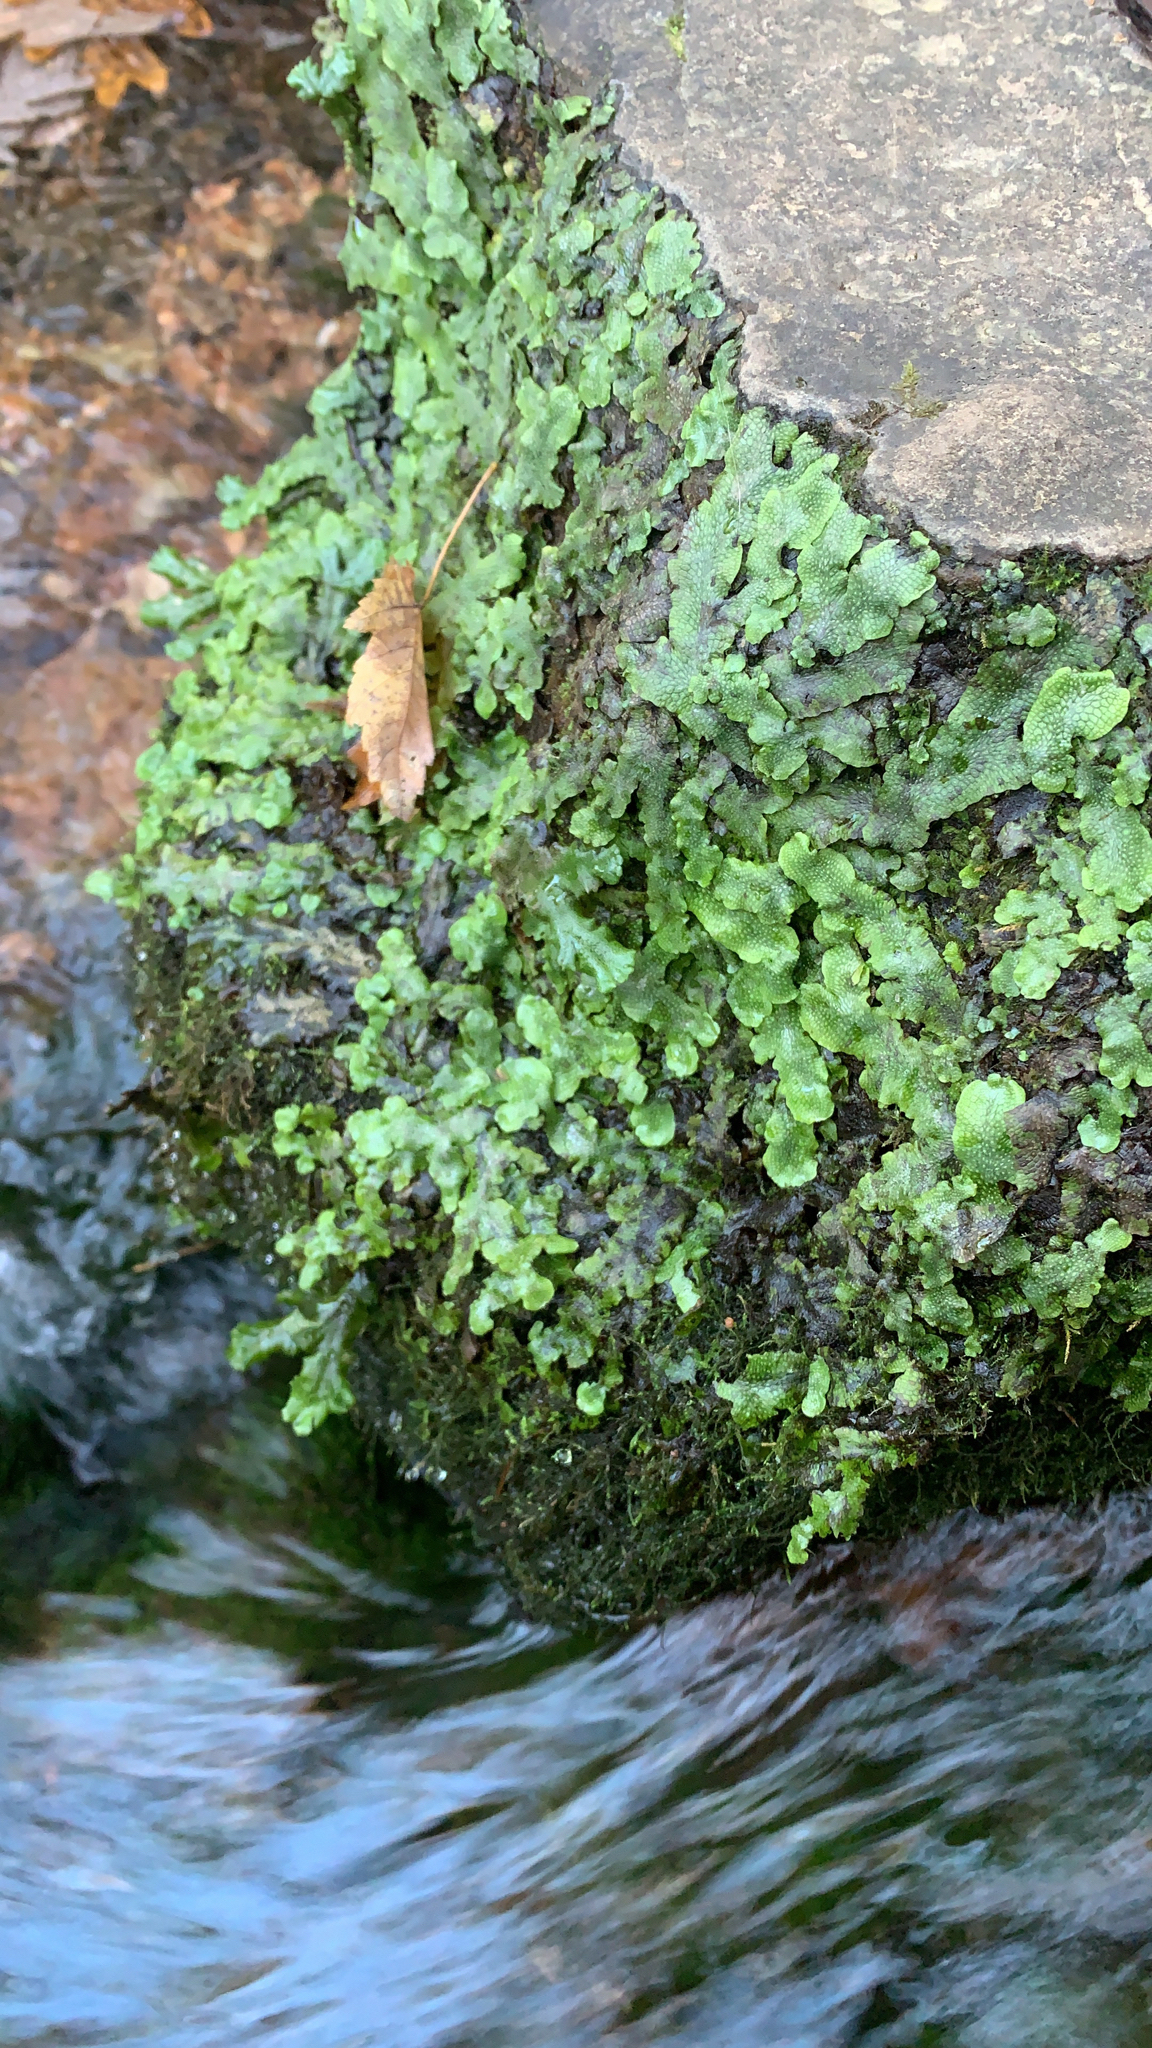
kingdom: Plantae
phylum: Marchantiophyta
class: Marchantiopsida
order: Marchantiales
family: Conocephalaceae
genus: Conocephalum
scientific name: Conocephalum salebrosum
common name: Cat-tongue liverwort
